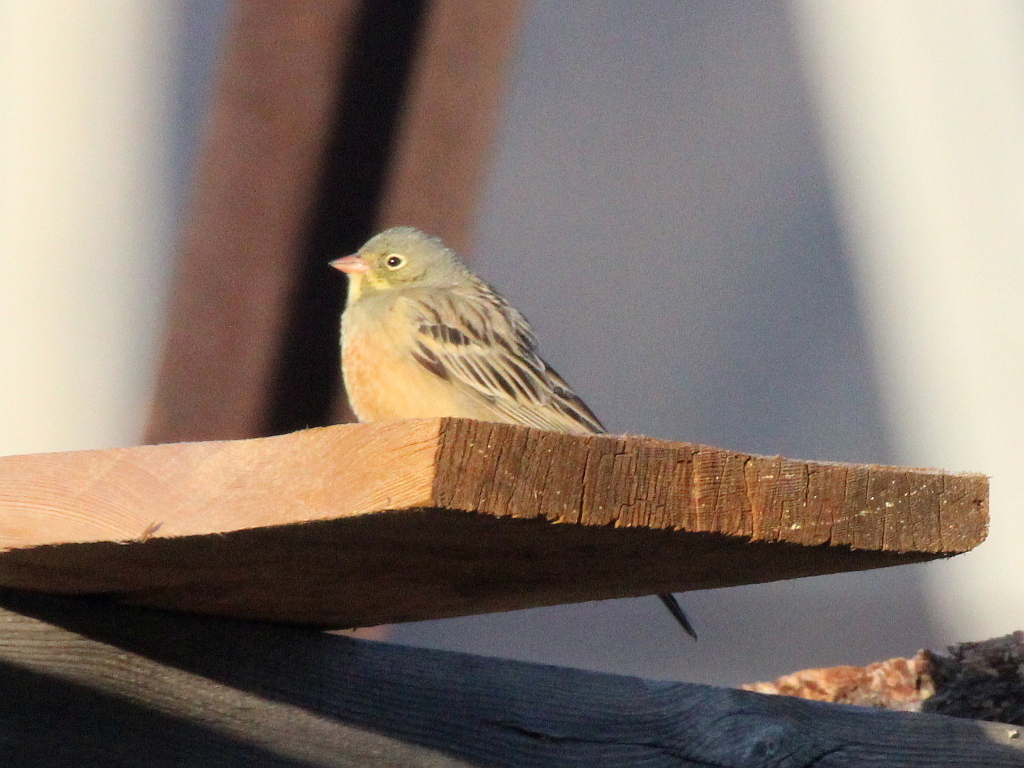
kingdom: Animalia
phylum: Chordata
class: Aves
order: Passeriformes
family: Emberizidae
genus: Emberiza
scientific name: Emberiza hortulana
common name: Ortolan bunting
